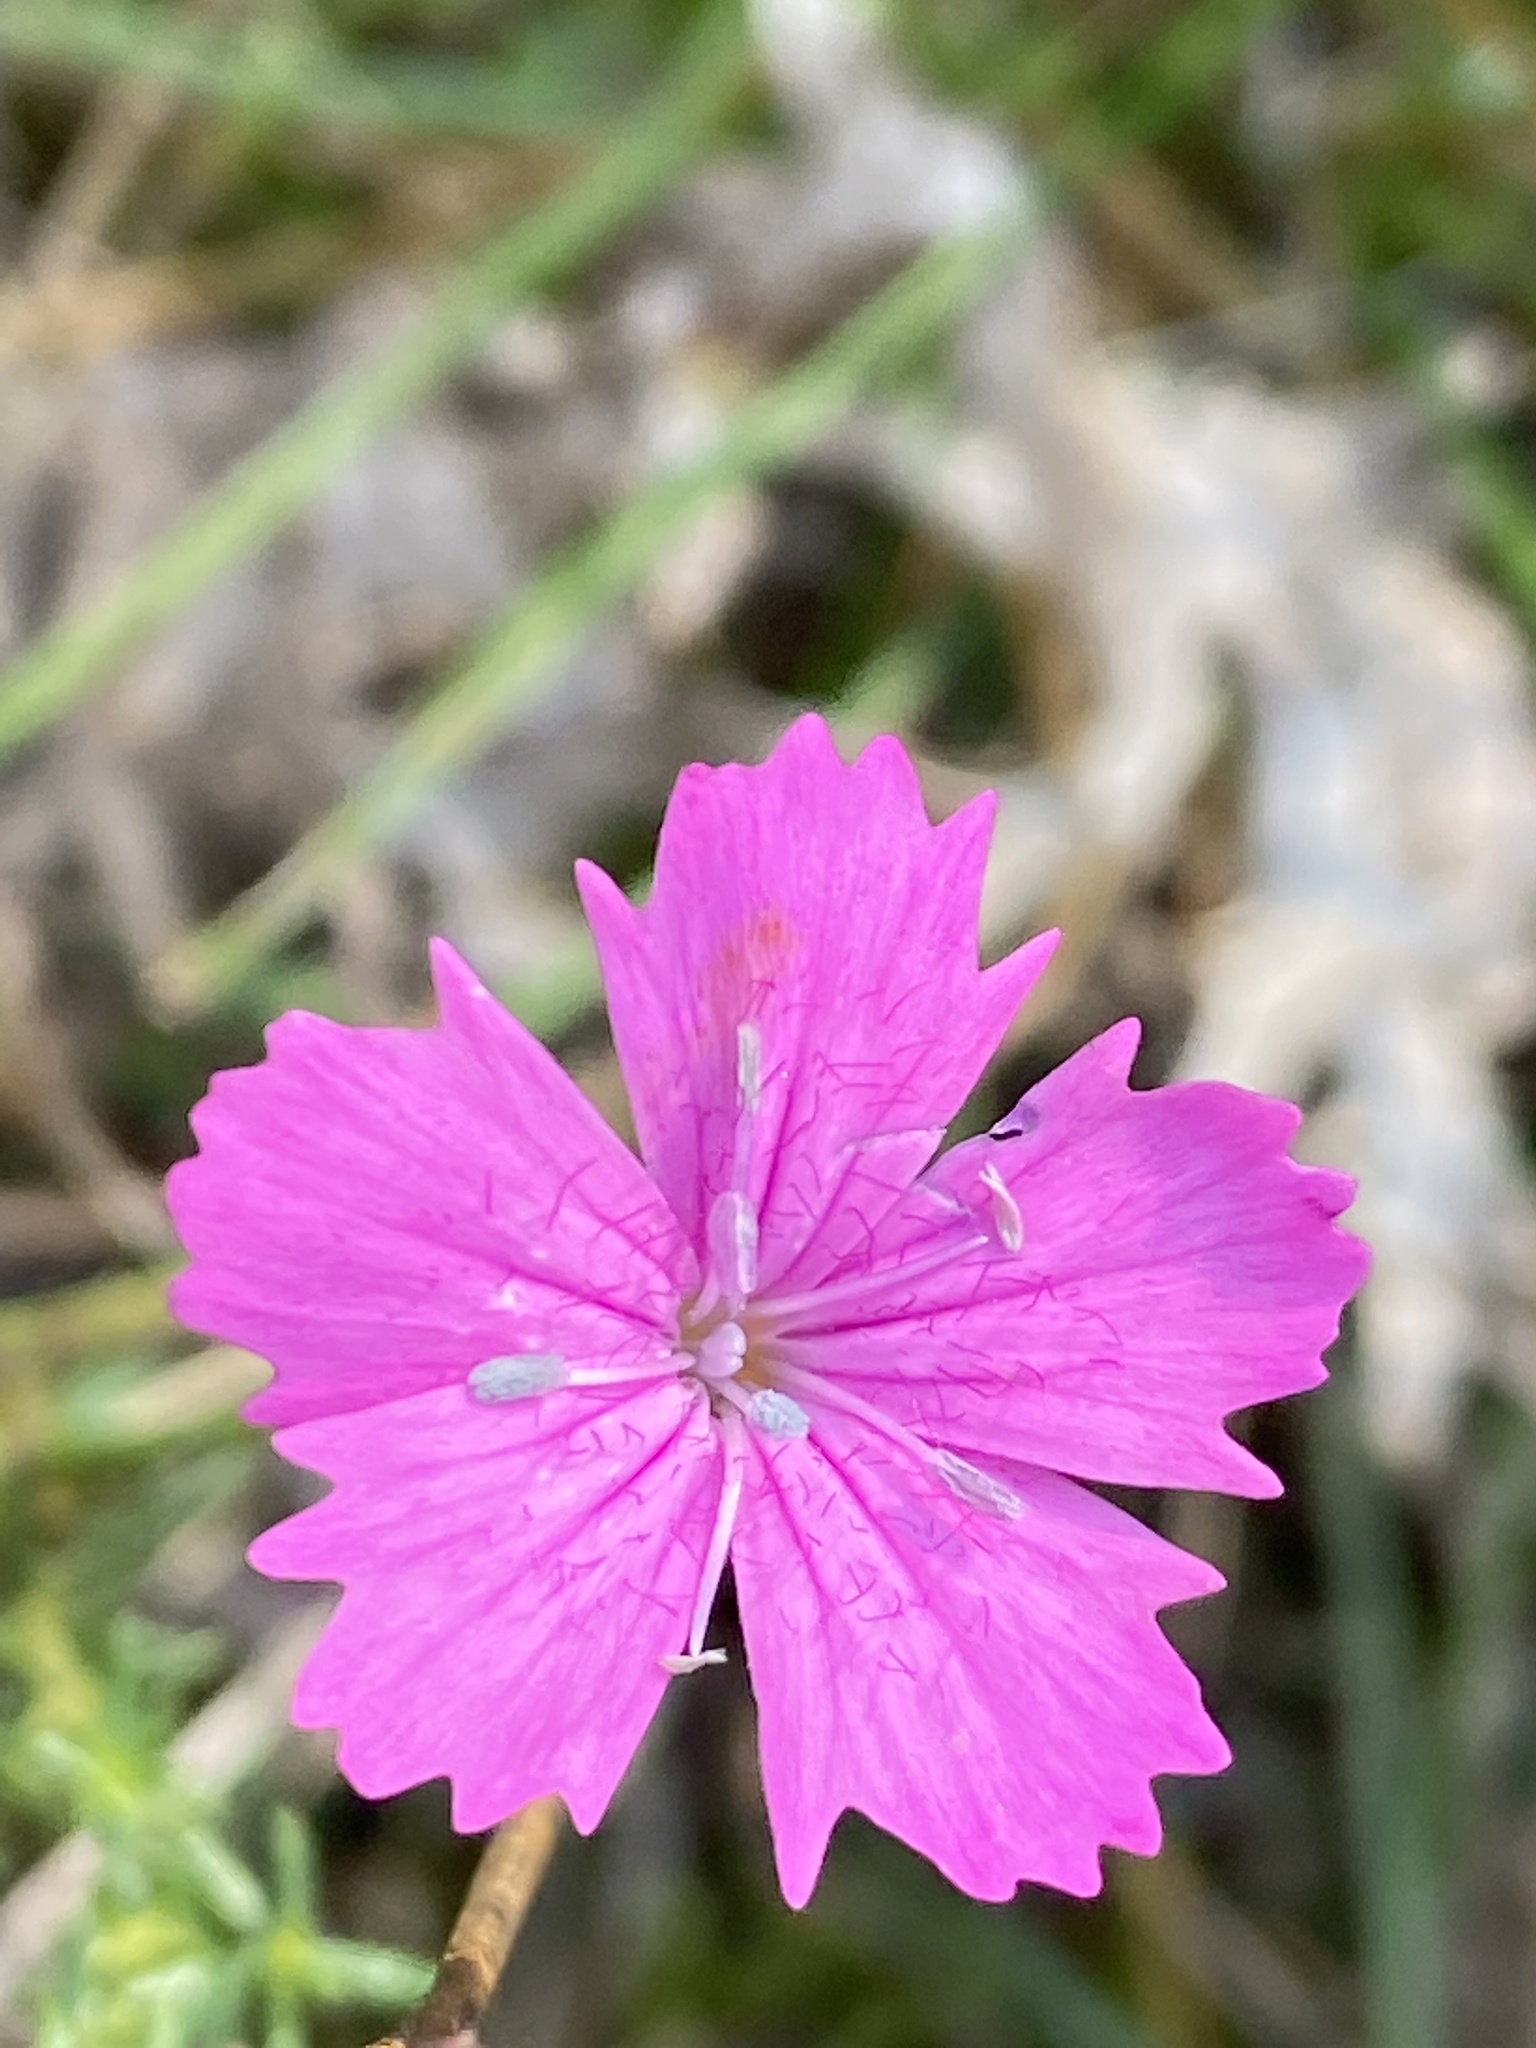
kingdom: Plantae
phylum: Tracheophyta
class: Magnoliopsida
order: Caryophyllales
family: Caryophyllaceae
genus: Dianthus
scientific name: Dianthus carthusianorum
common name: Carthusian pink
